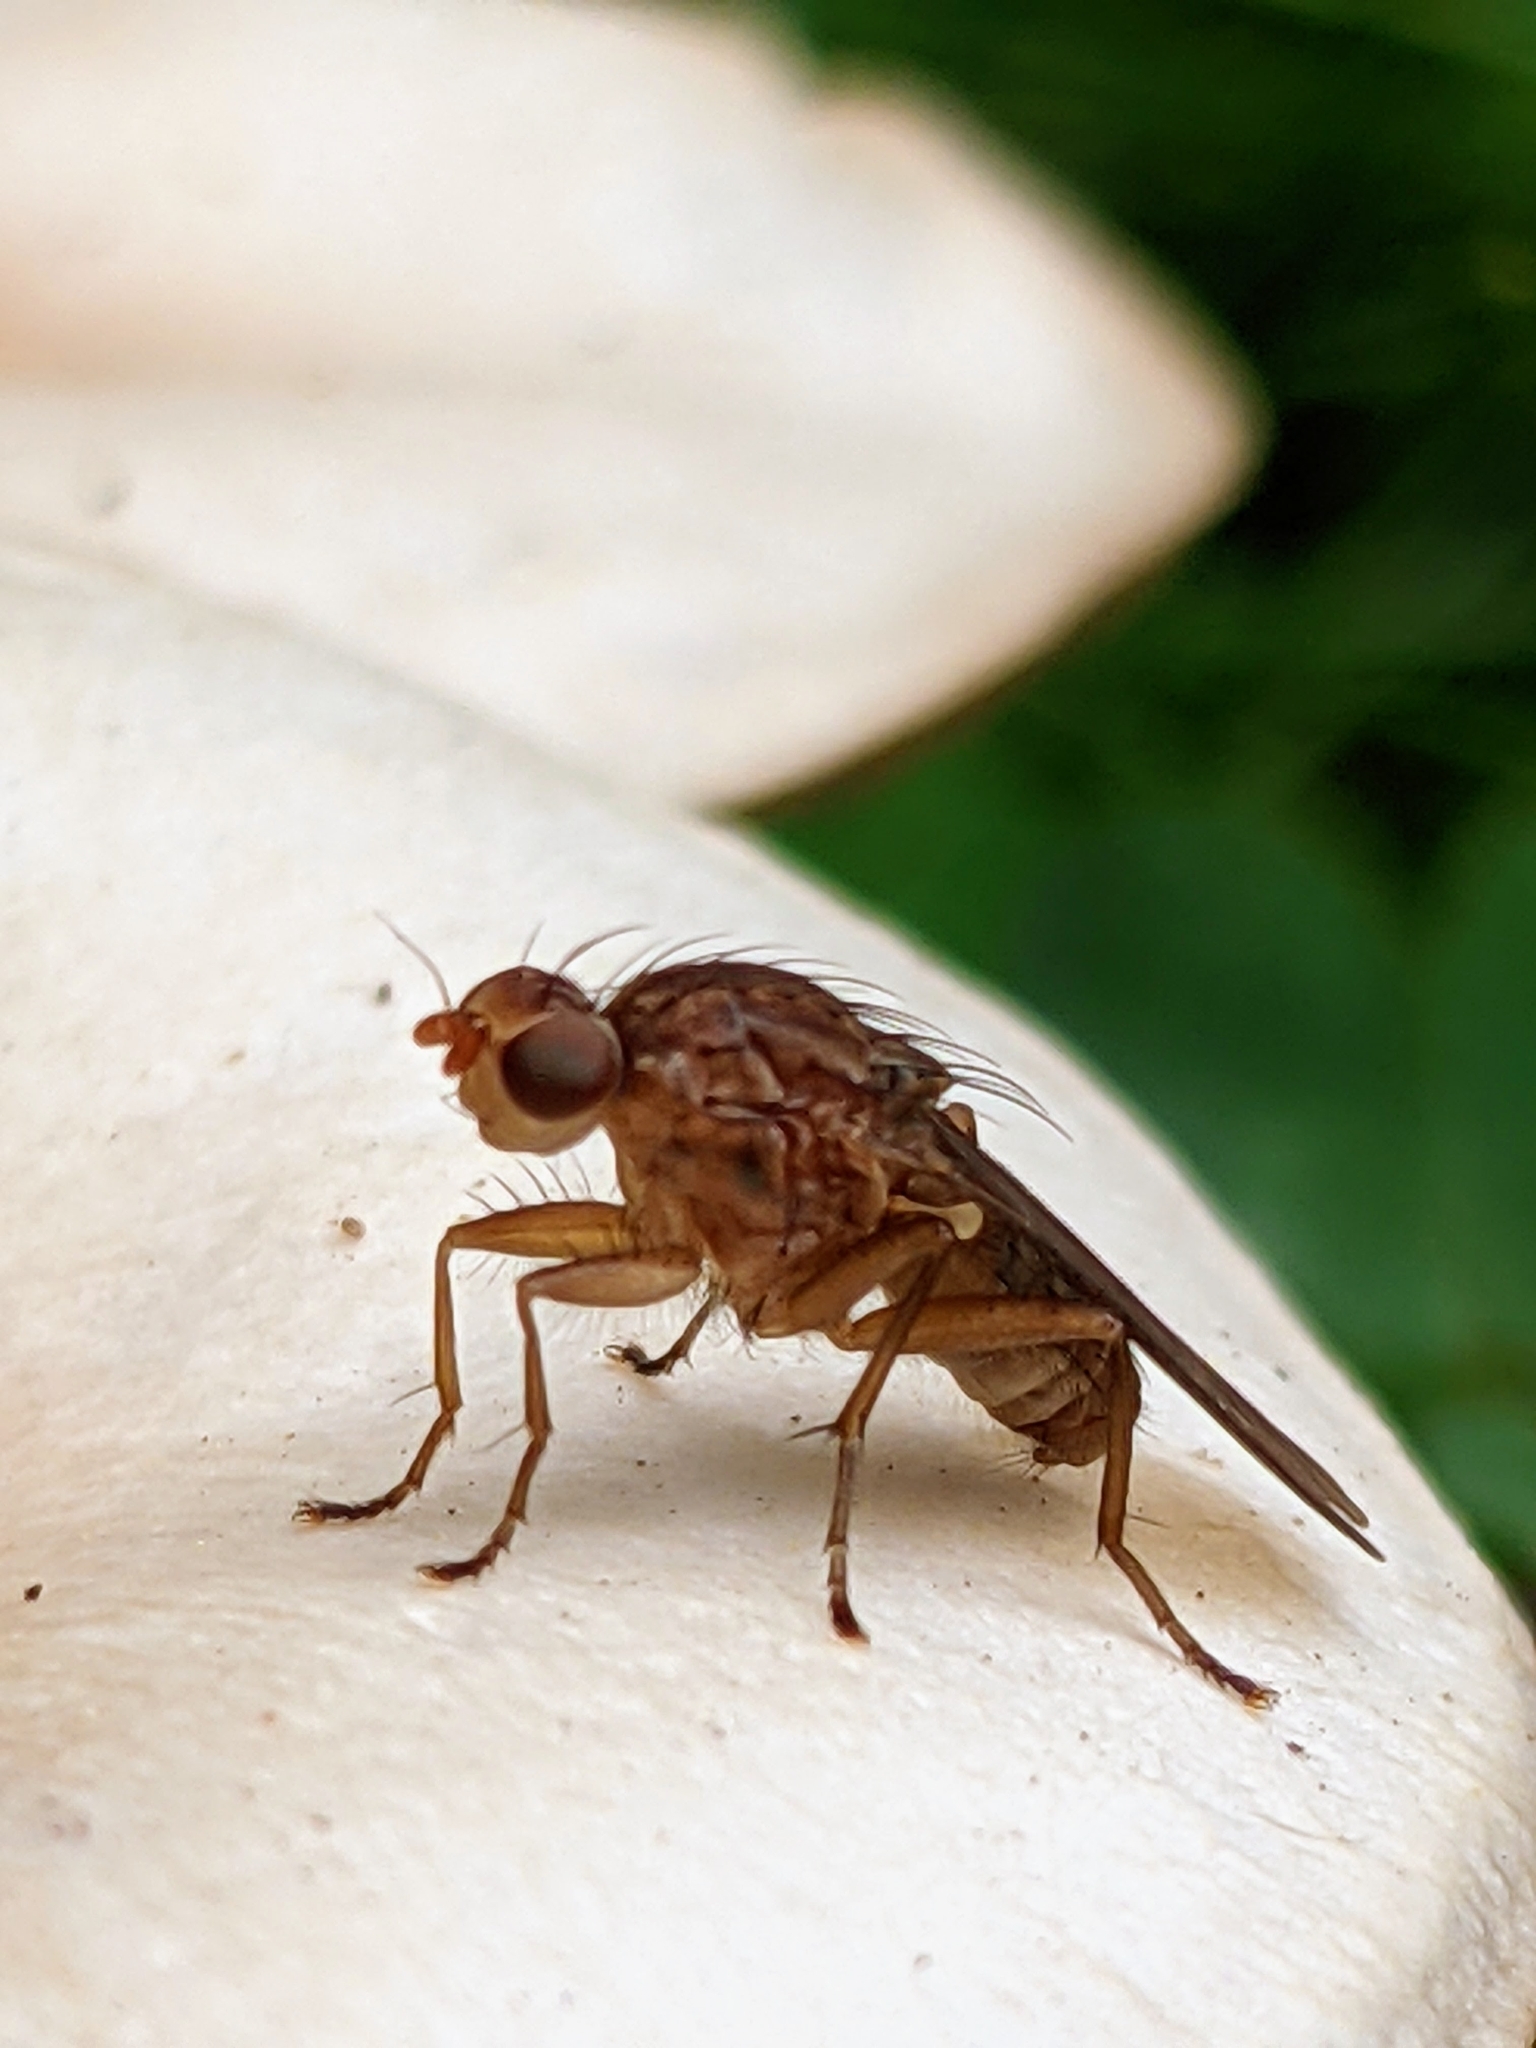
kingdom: Animalia
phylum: Arthropoda
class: Insecta
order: Diptera
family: Heleomyzidae
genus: Suillia
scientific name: Suillia
